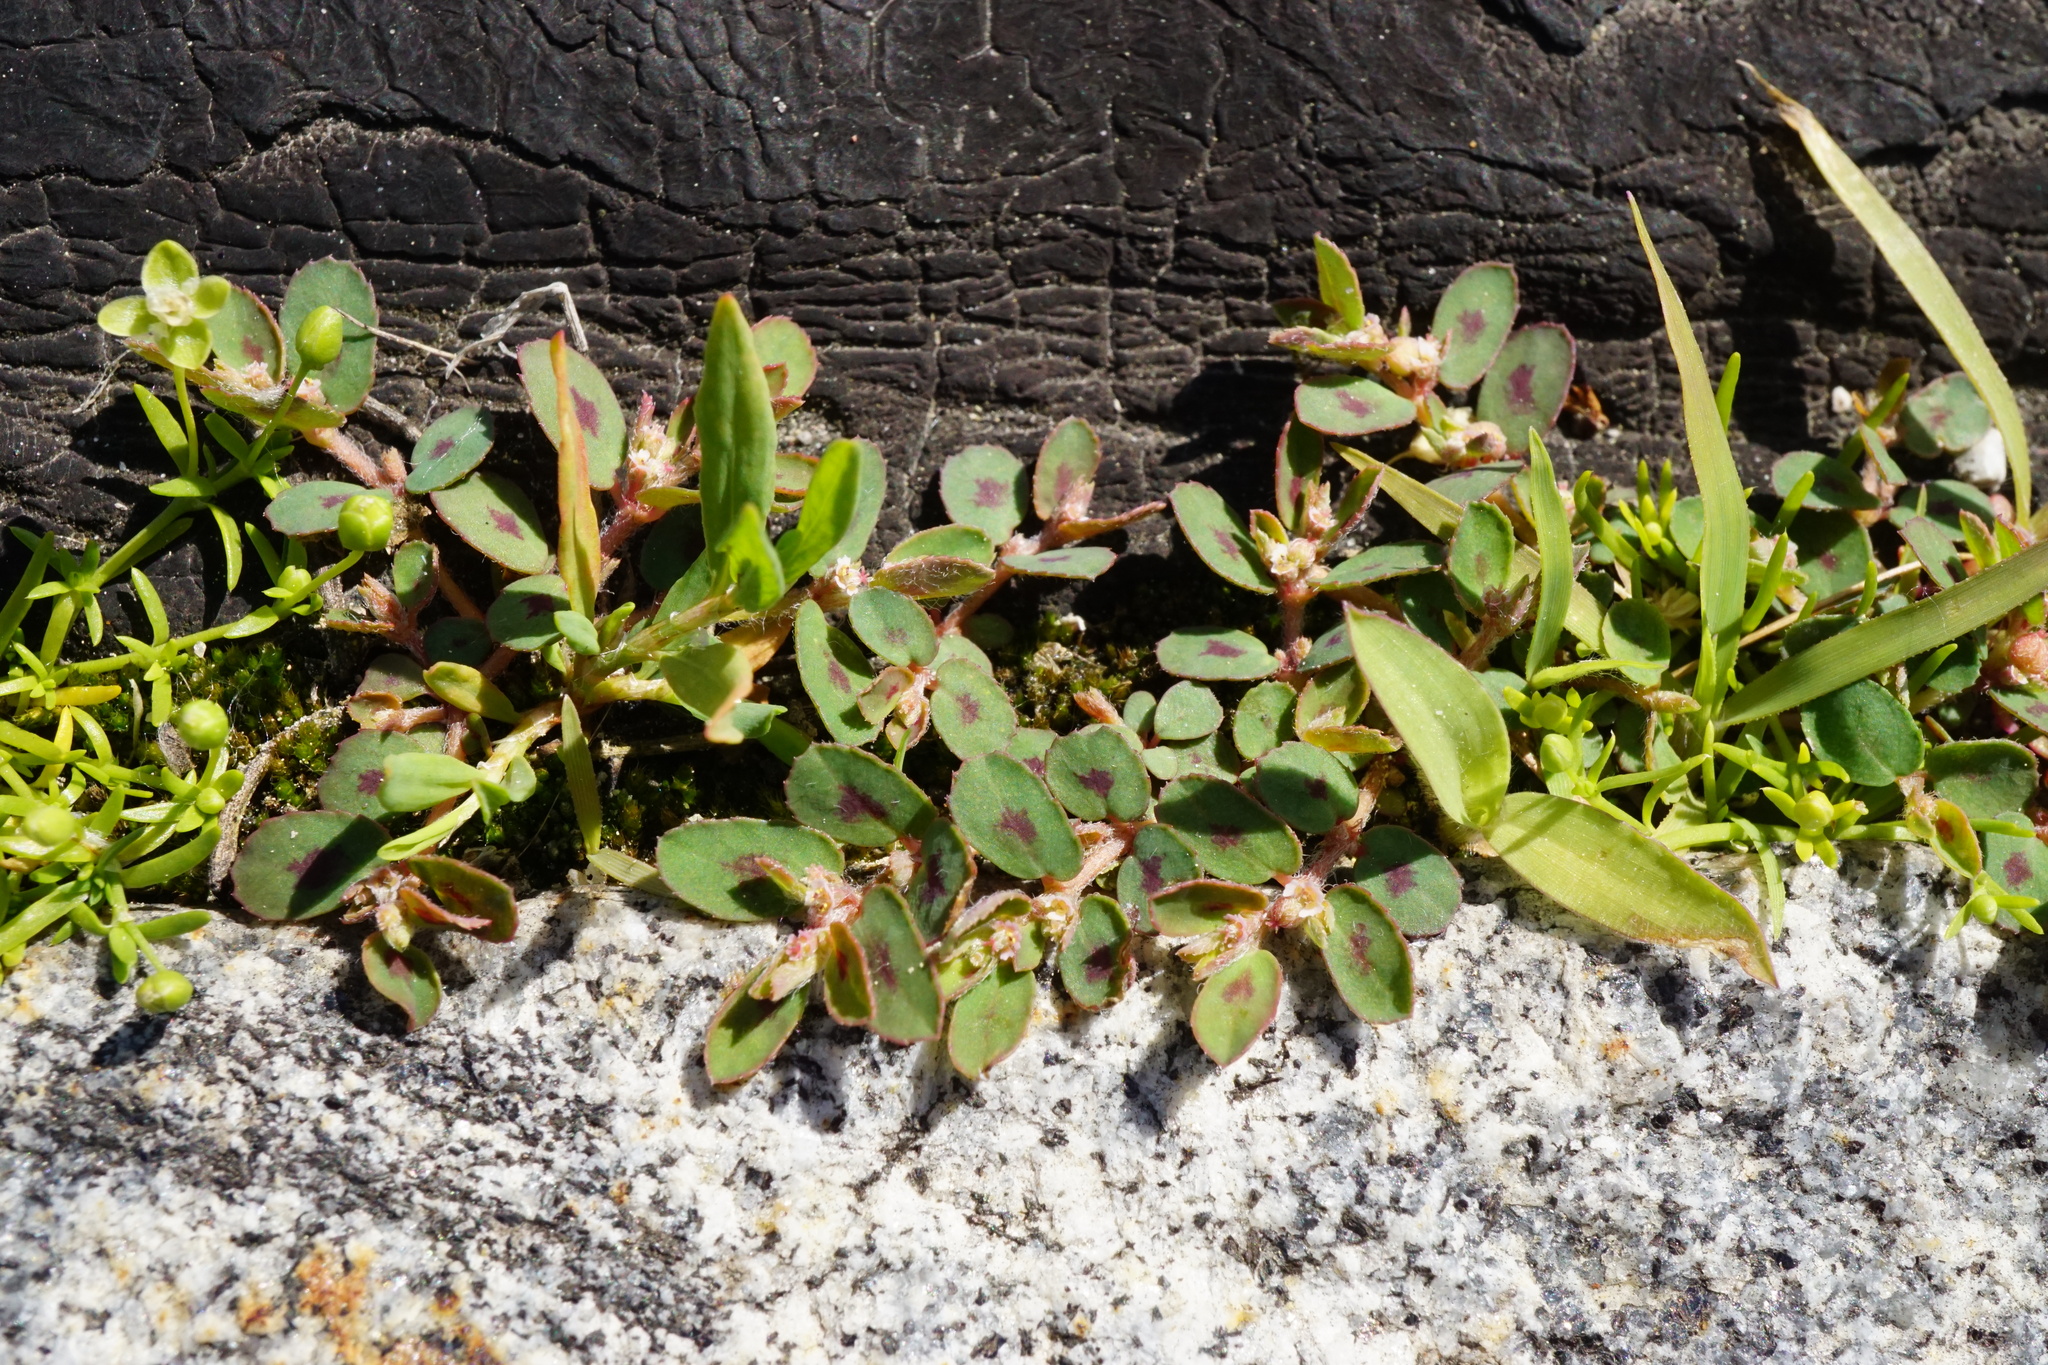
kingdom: Plantae
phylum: Tracheophyta
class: Magnoliopsida
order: Malpighiales
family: Euphorbiaceae
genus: Euphorbia
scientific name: Euphorbia maculata
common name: Spotted spurge
